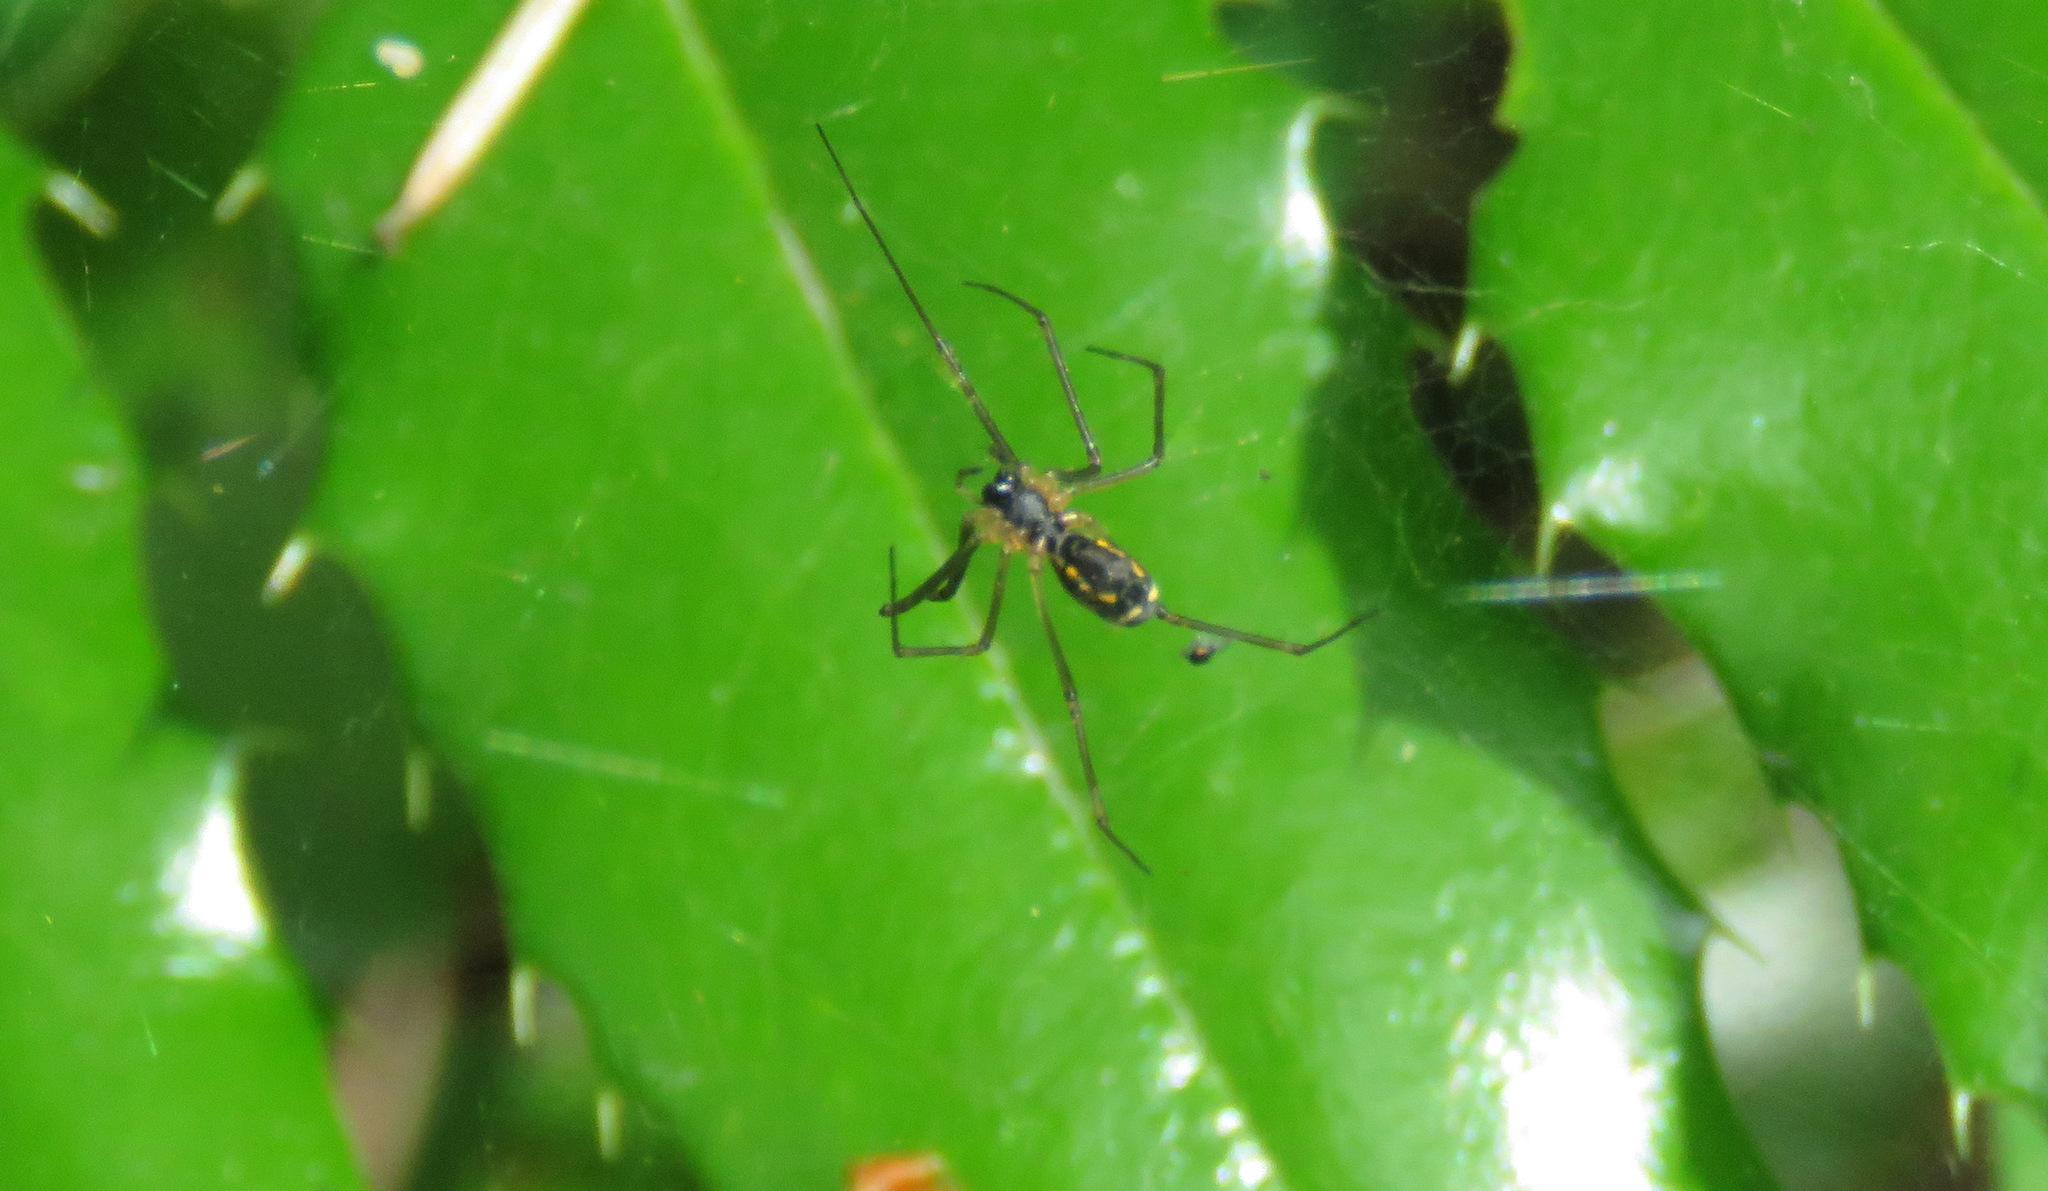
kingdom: Animalia
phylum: Arthropoda
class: Arachnida
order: Araneae
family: Linyphiidae
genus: Neriene
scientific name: Neriene radiata
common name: Filmy dome spider
